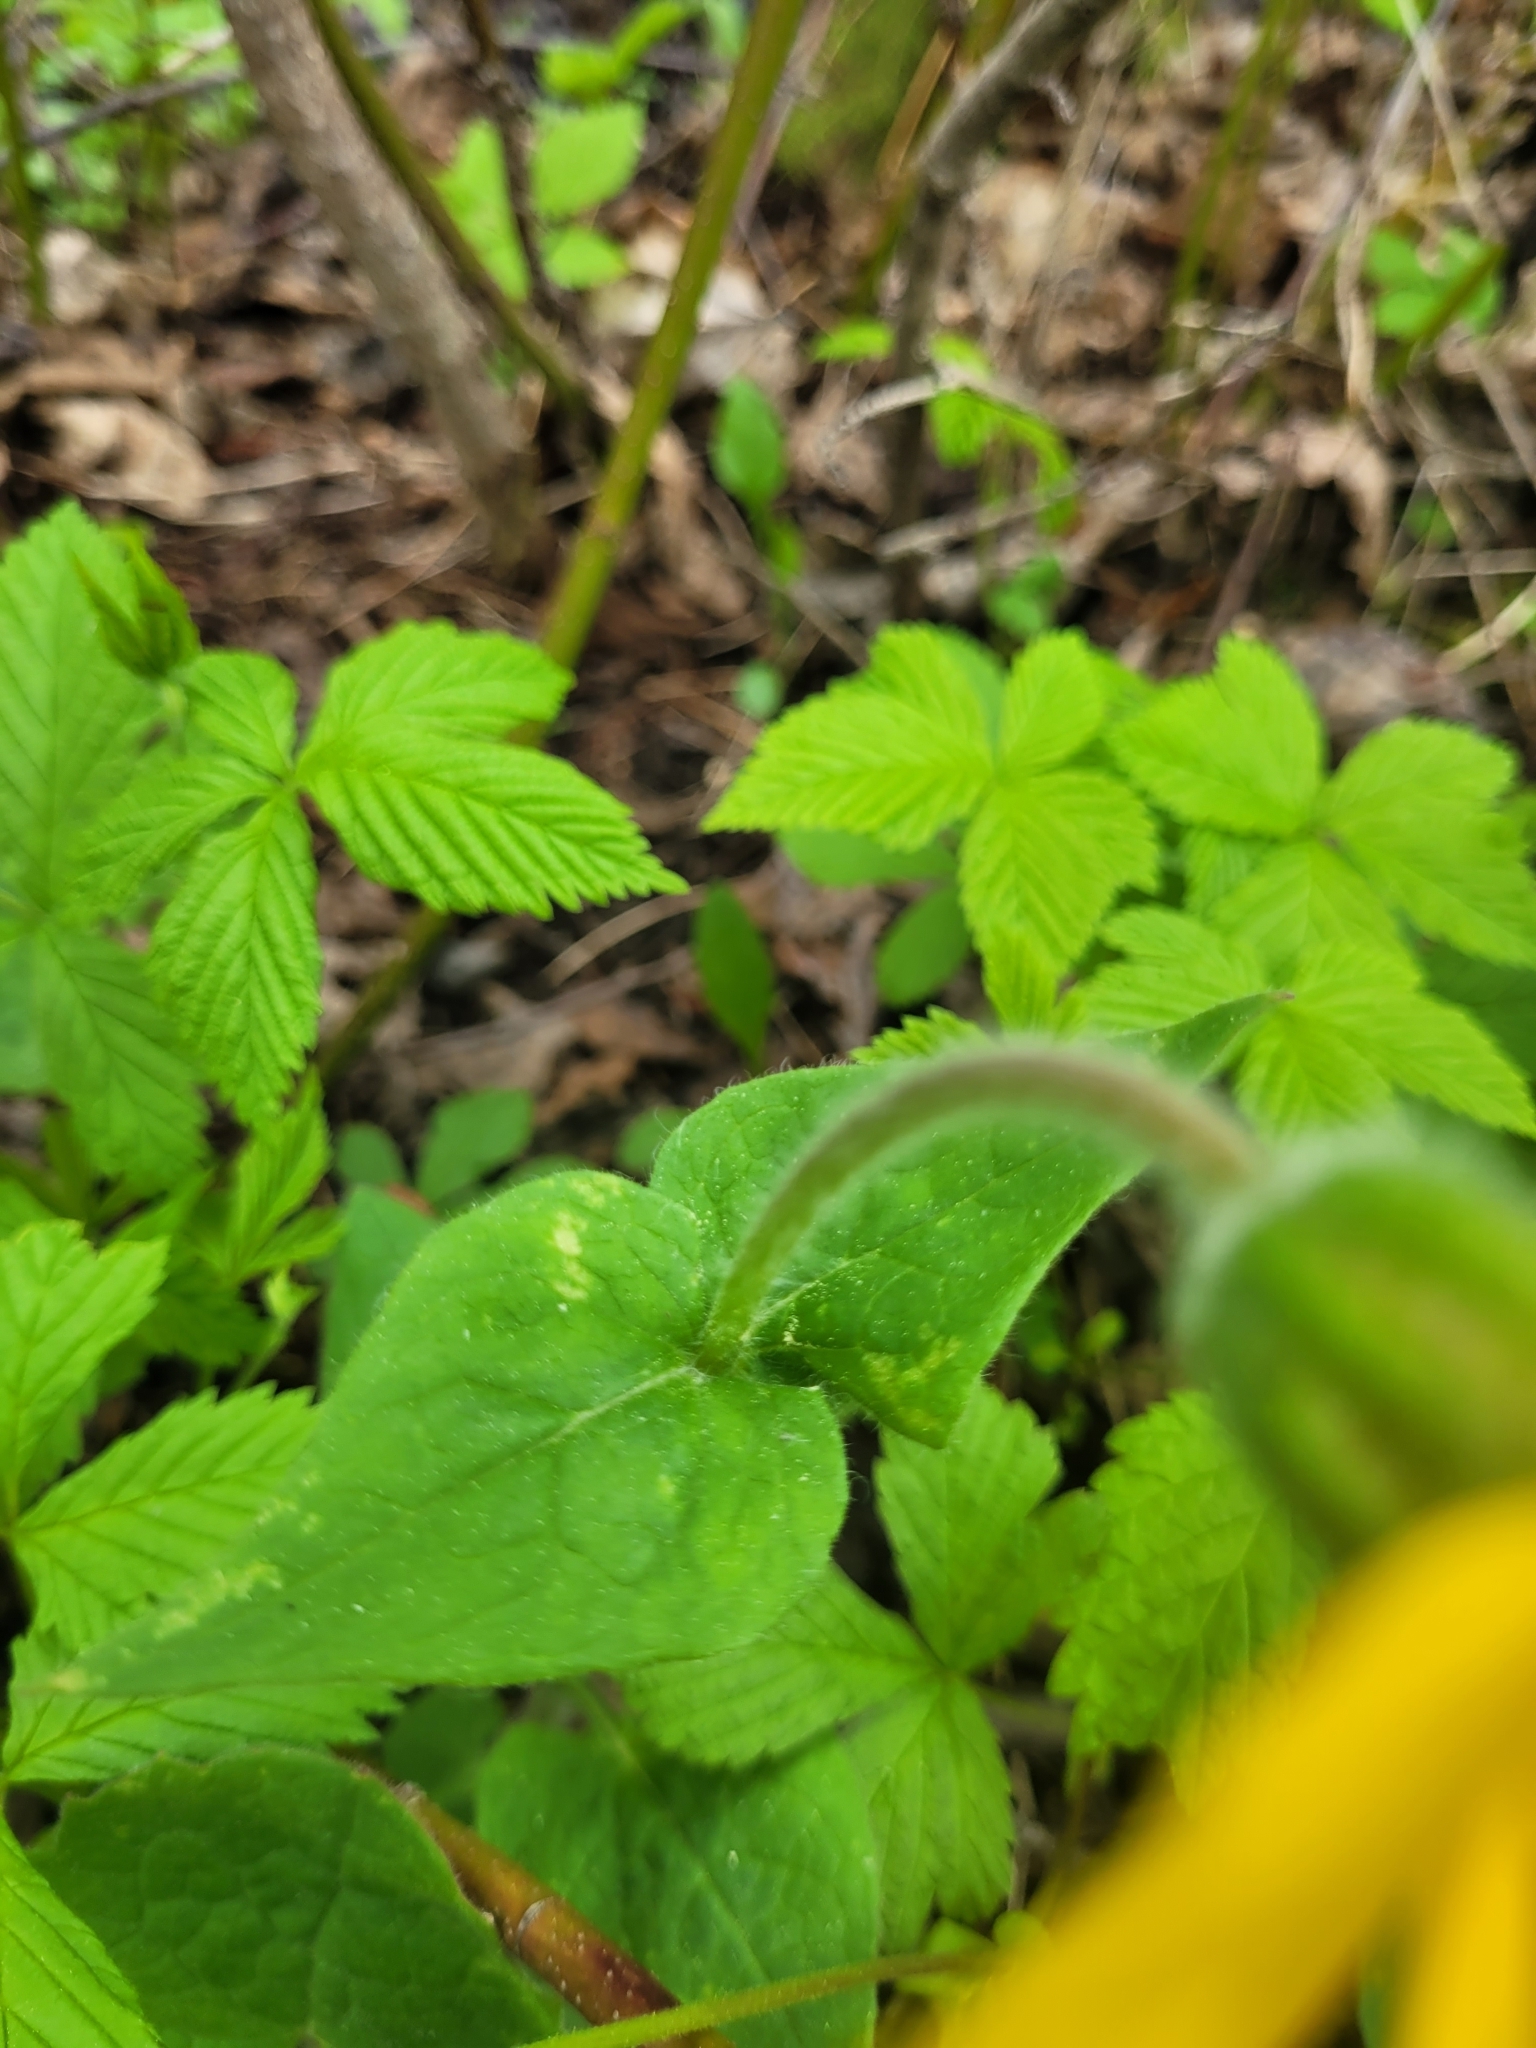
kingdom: Plantae
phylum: Tracheophyta
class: Magnoliopsida
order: Asterales
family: Asteraceae
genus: Arnica
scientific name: Arnica cordifolia
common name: Heart-leaf arnica
